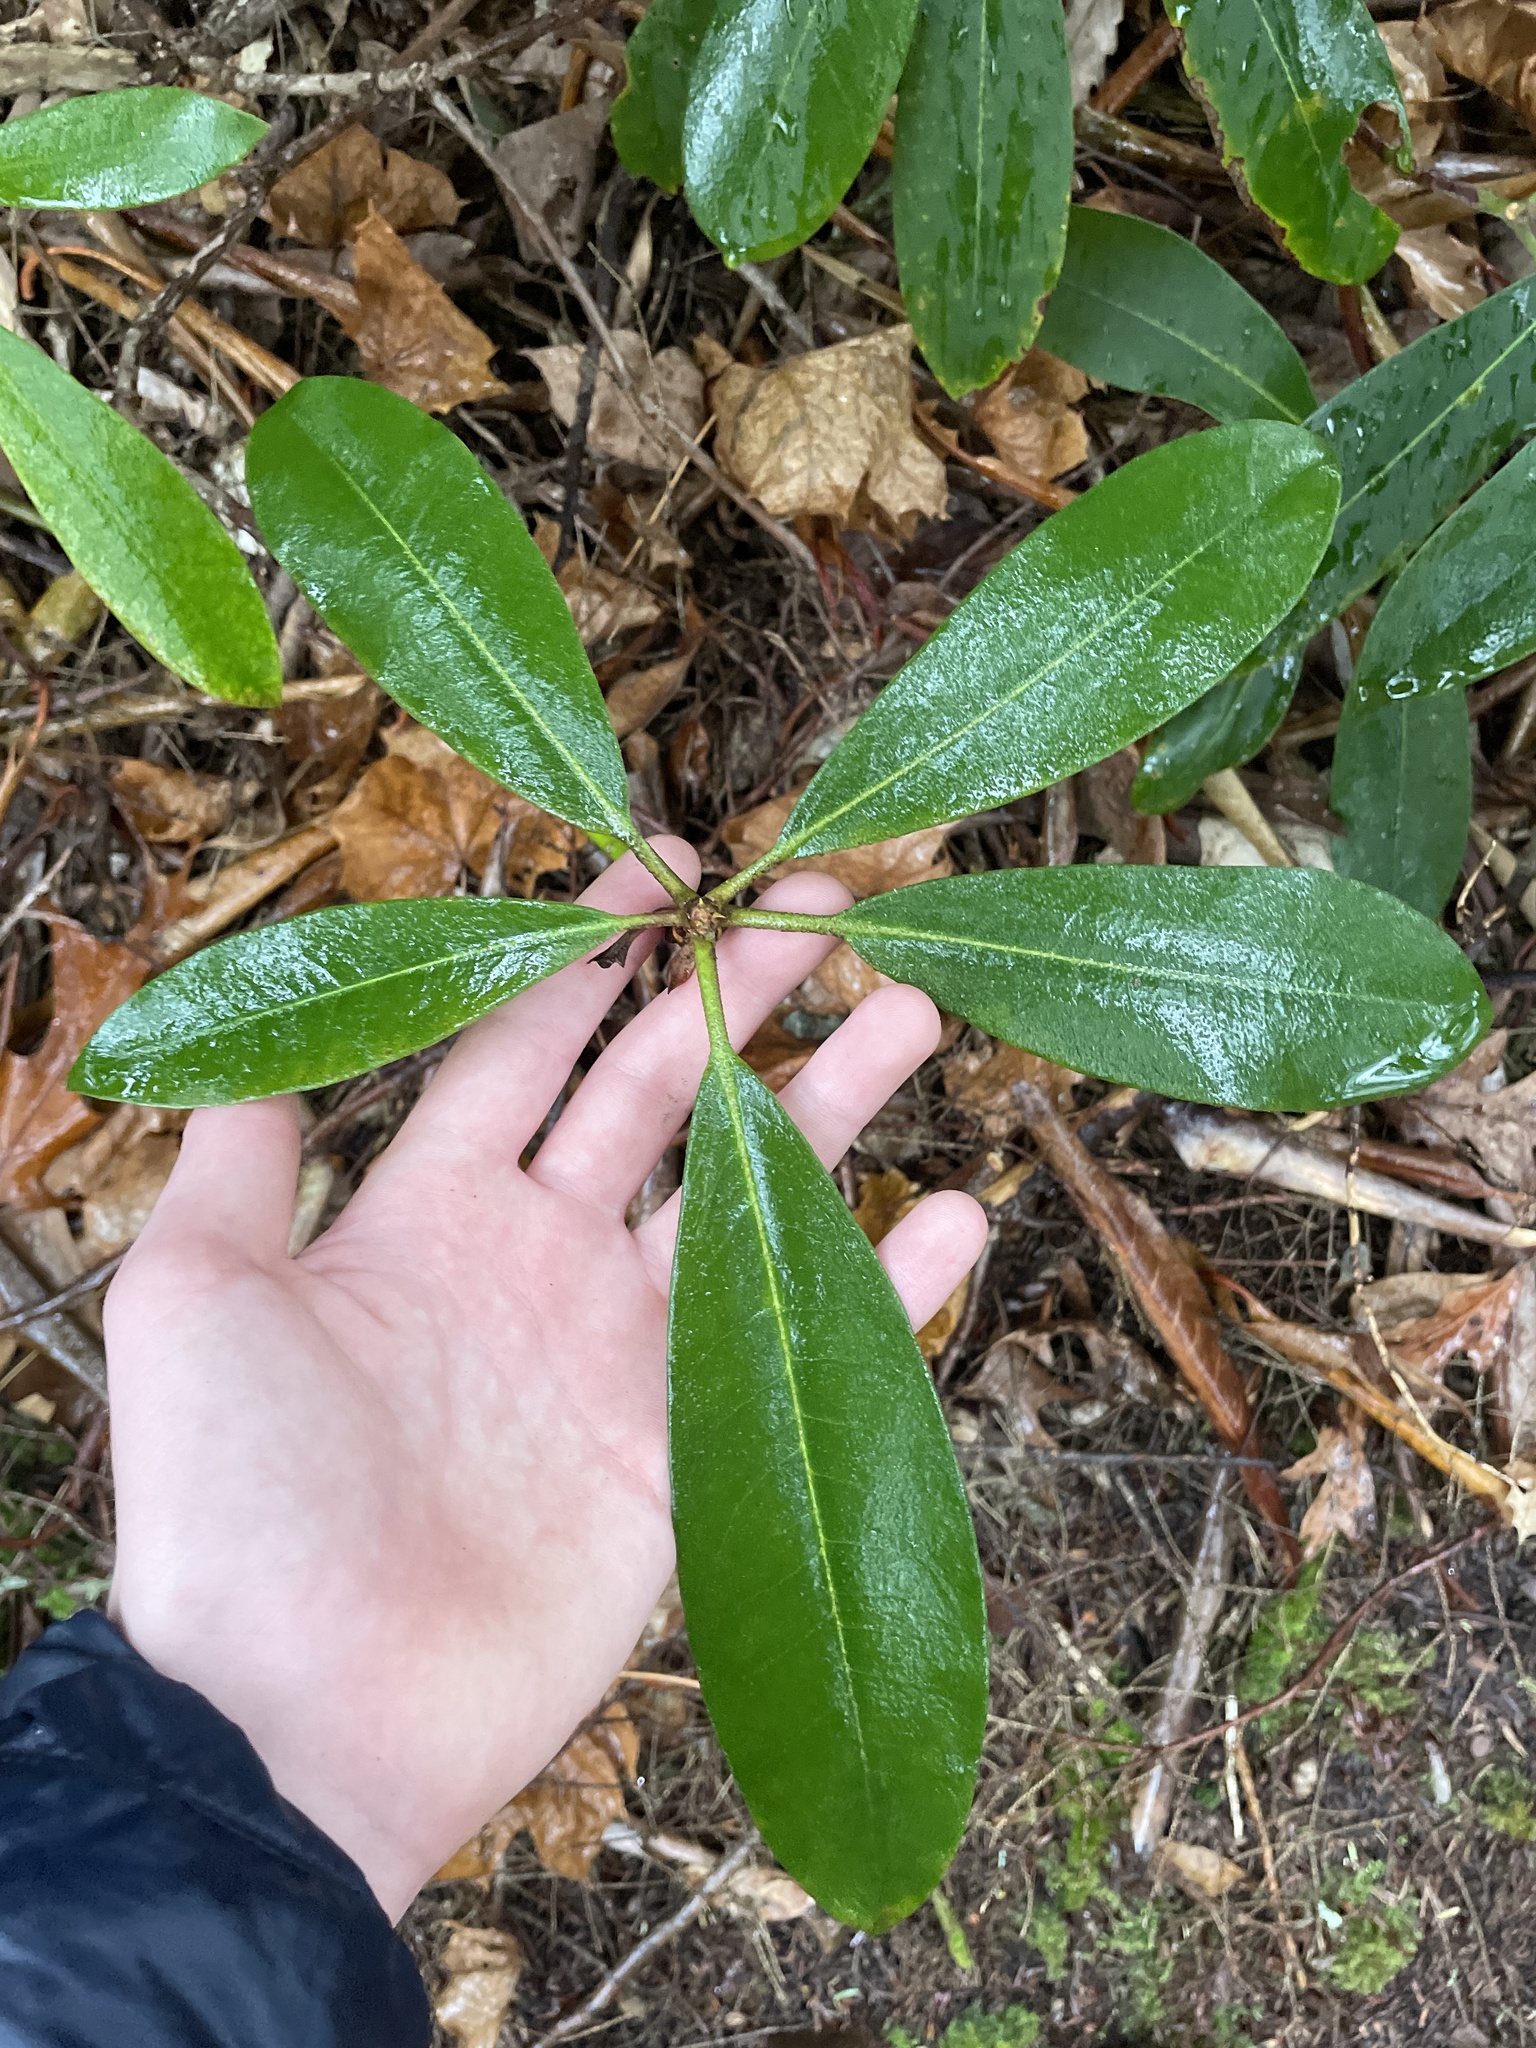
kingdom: Plantae
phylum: Tracheophyta
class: Magnoliopsida
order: Ericales
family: Ericaceae
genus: Rhododendron
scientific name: Rhododendron maximum
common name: Great rhododendron
